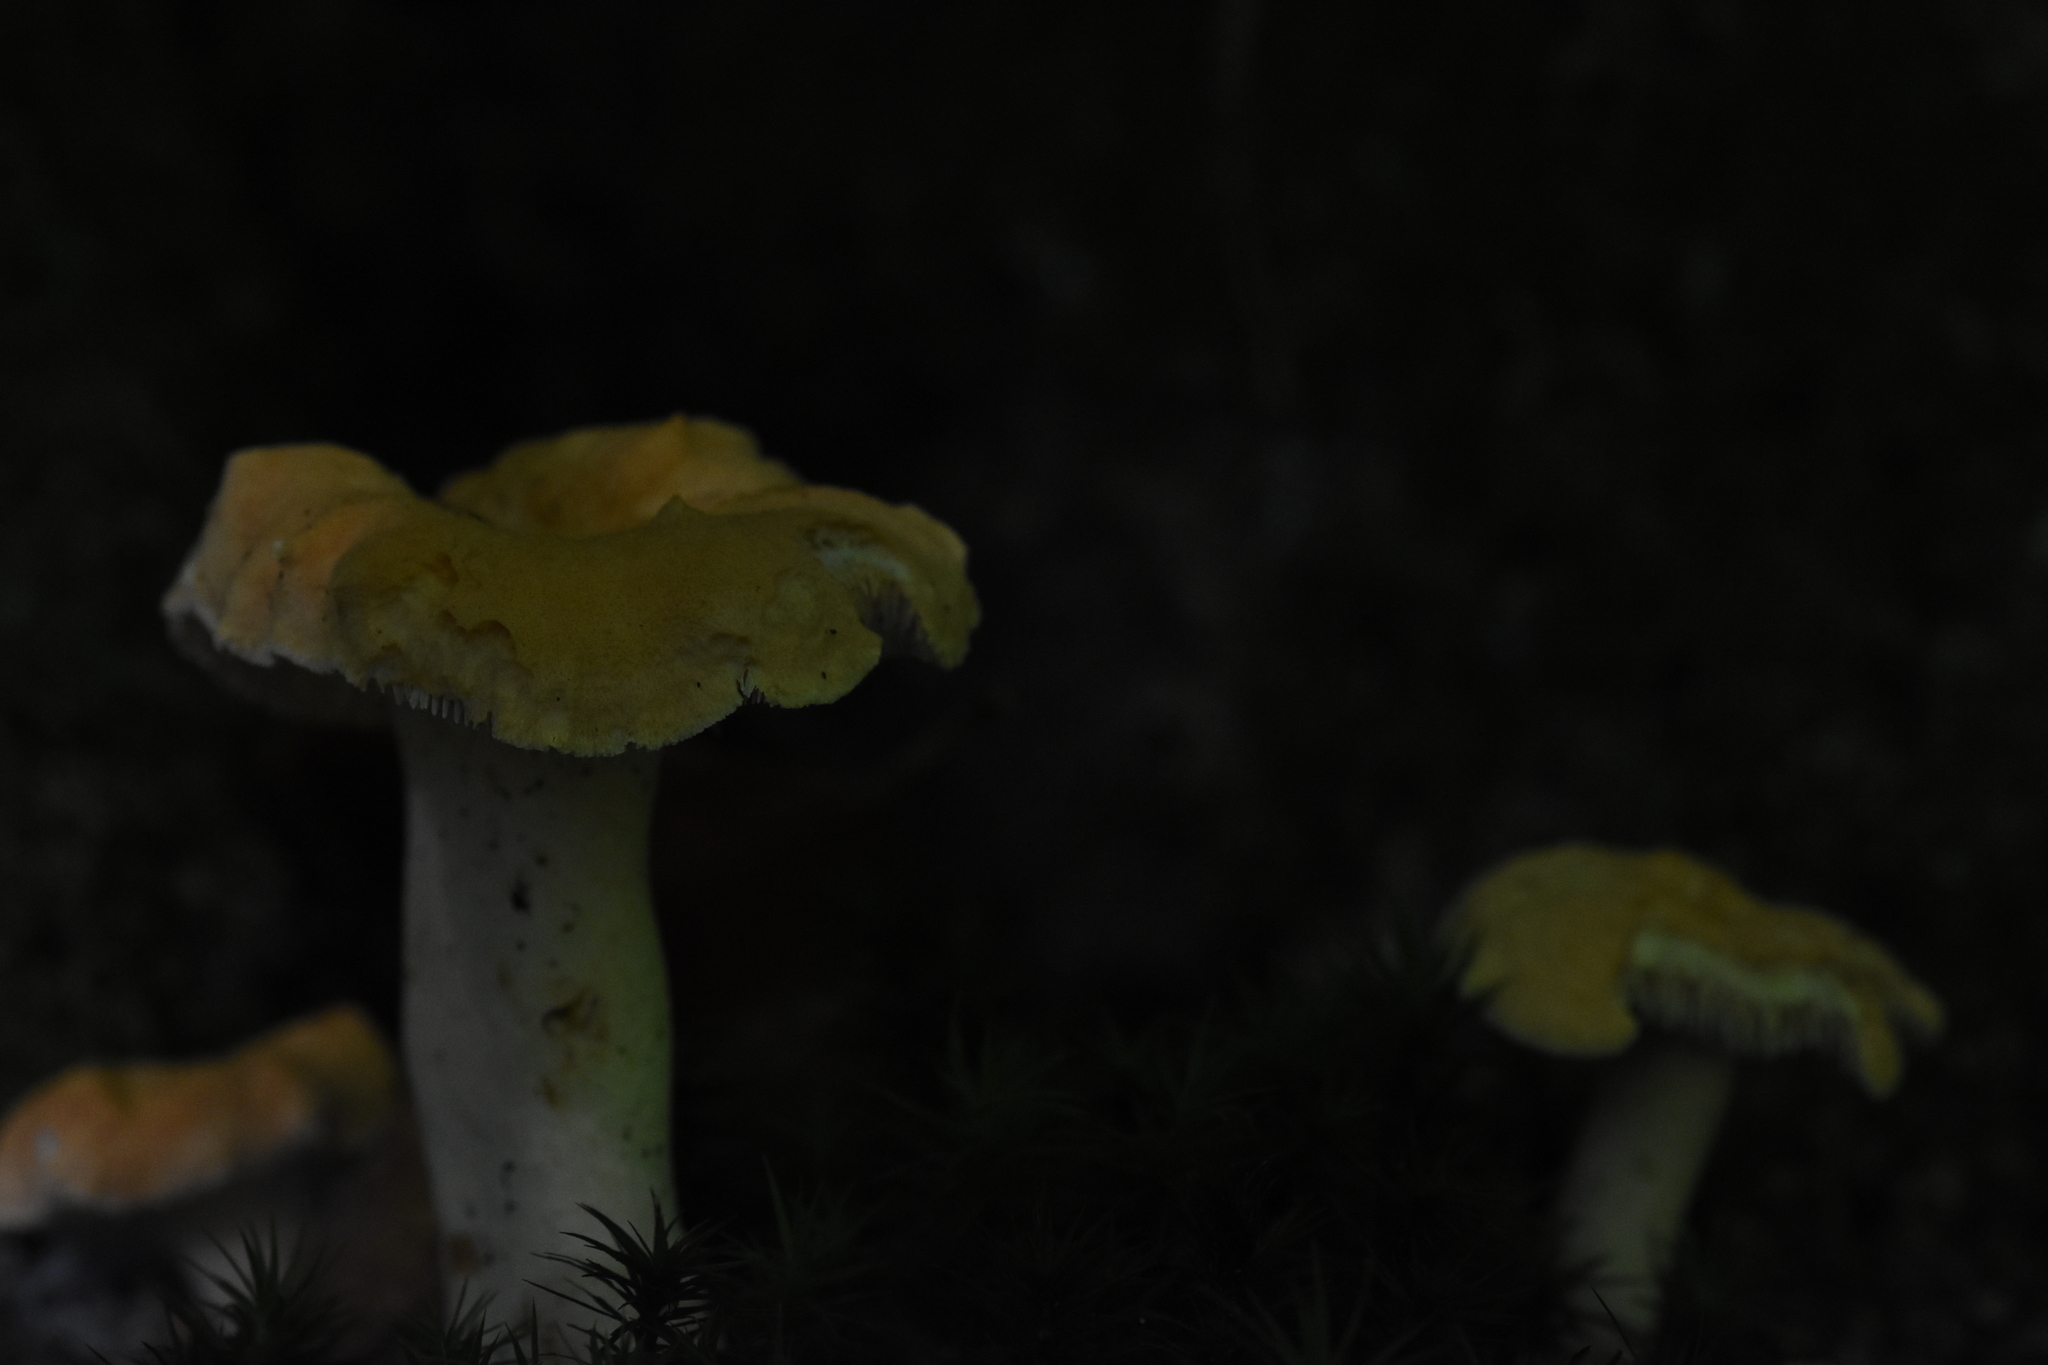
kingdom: Fungi
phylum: Basidiomycota
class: Agaricomycetes
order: Cantharellales
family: Hydnaceae
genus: Hydnum
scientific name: Hydnum repandum
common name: Wood hedgehog
